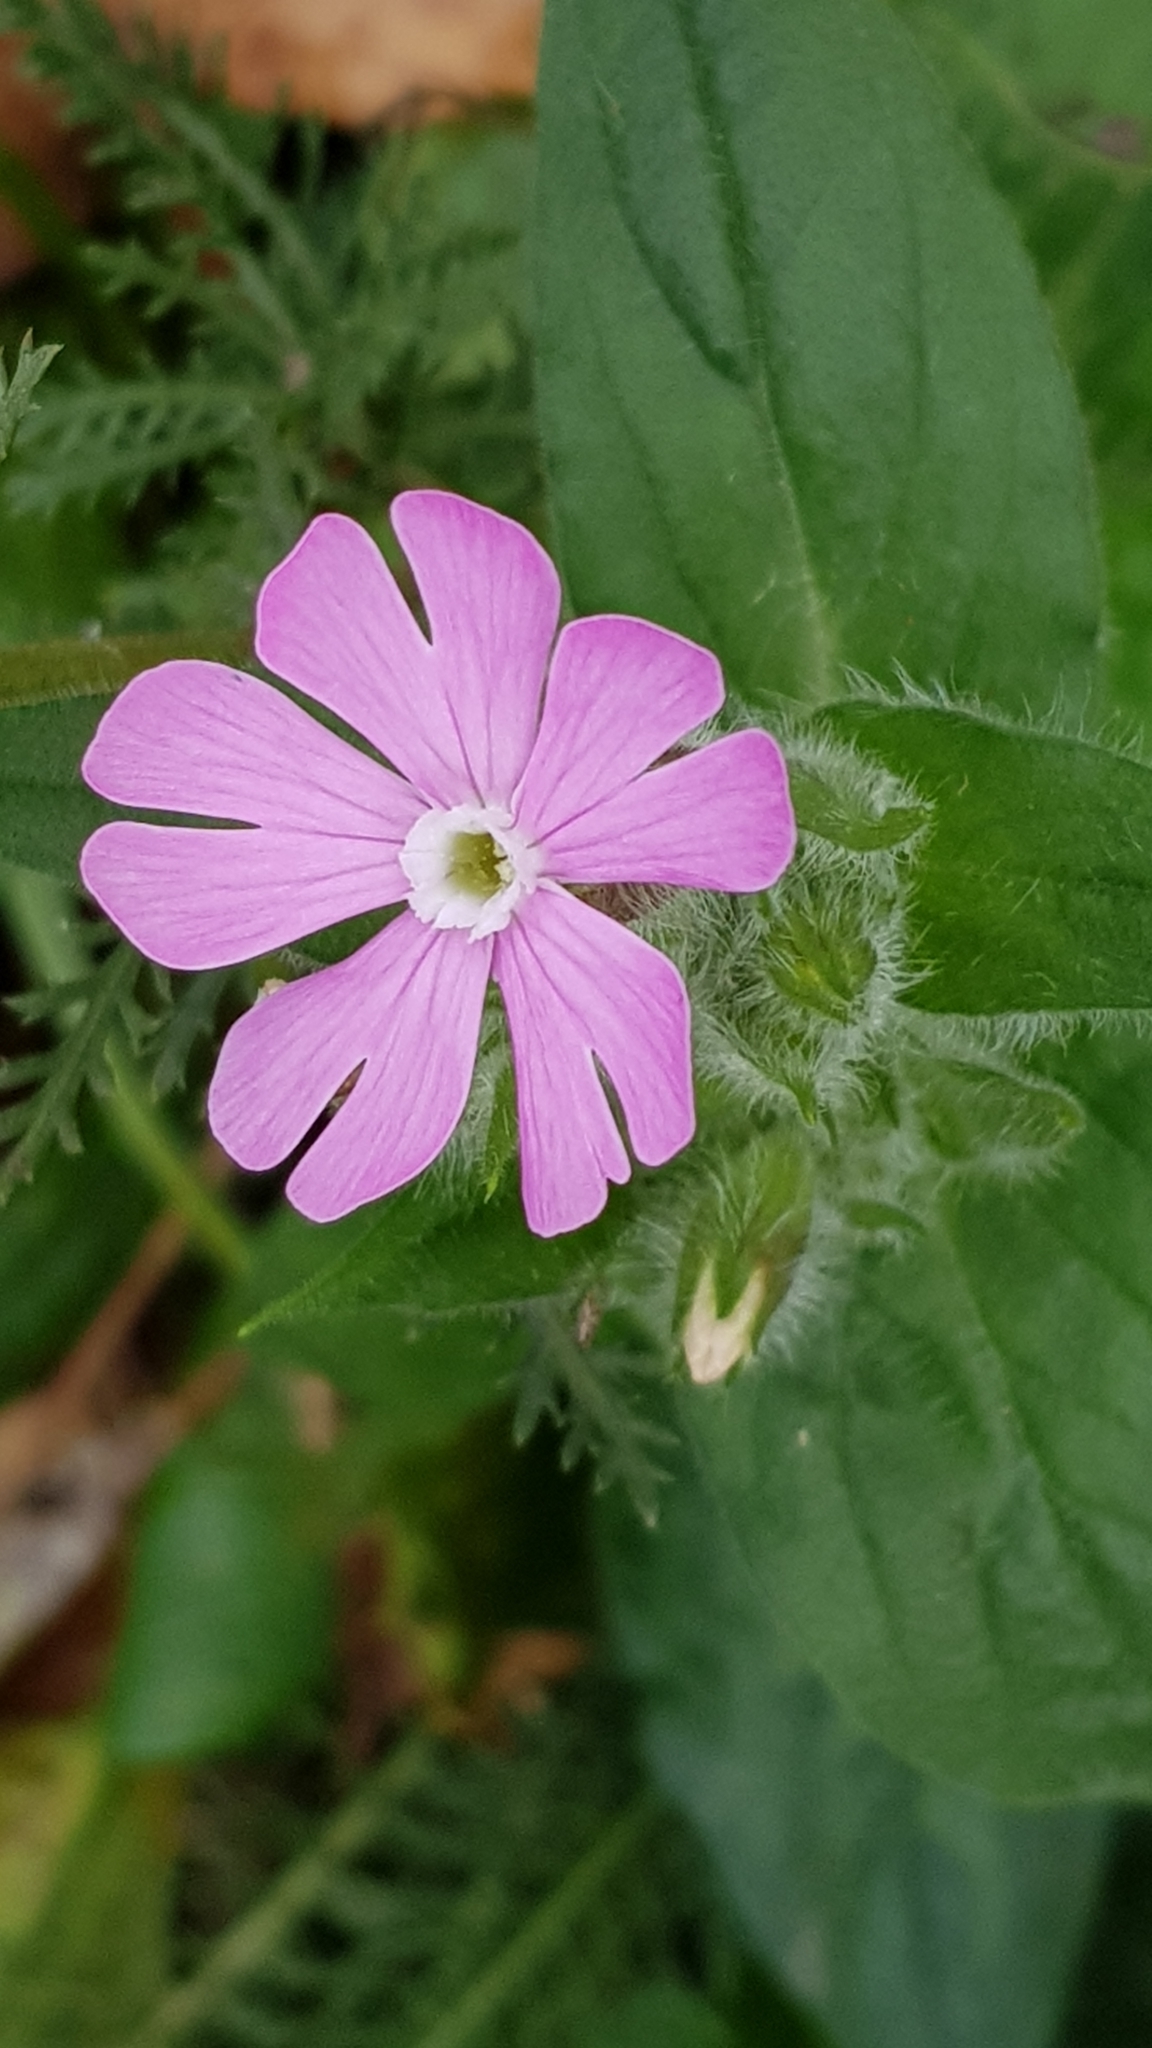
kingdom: Plantae
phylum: Tracheophyta
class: Magnoliopsida
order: Caryophyllales
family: Caryophyllaceae
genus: Silene
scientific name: Silene dioica
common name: Red campion
